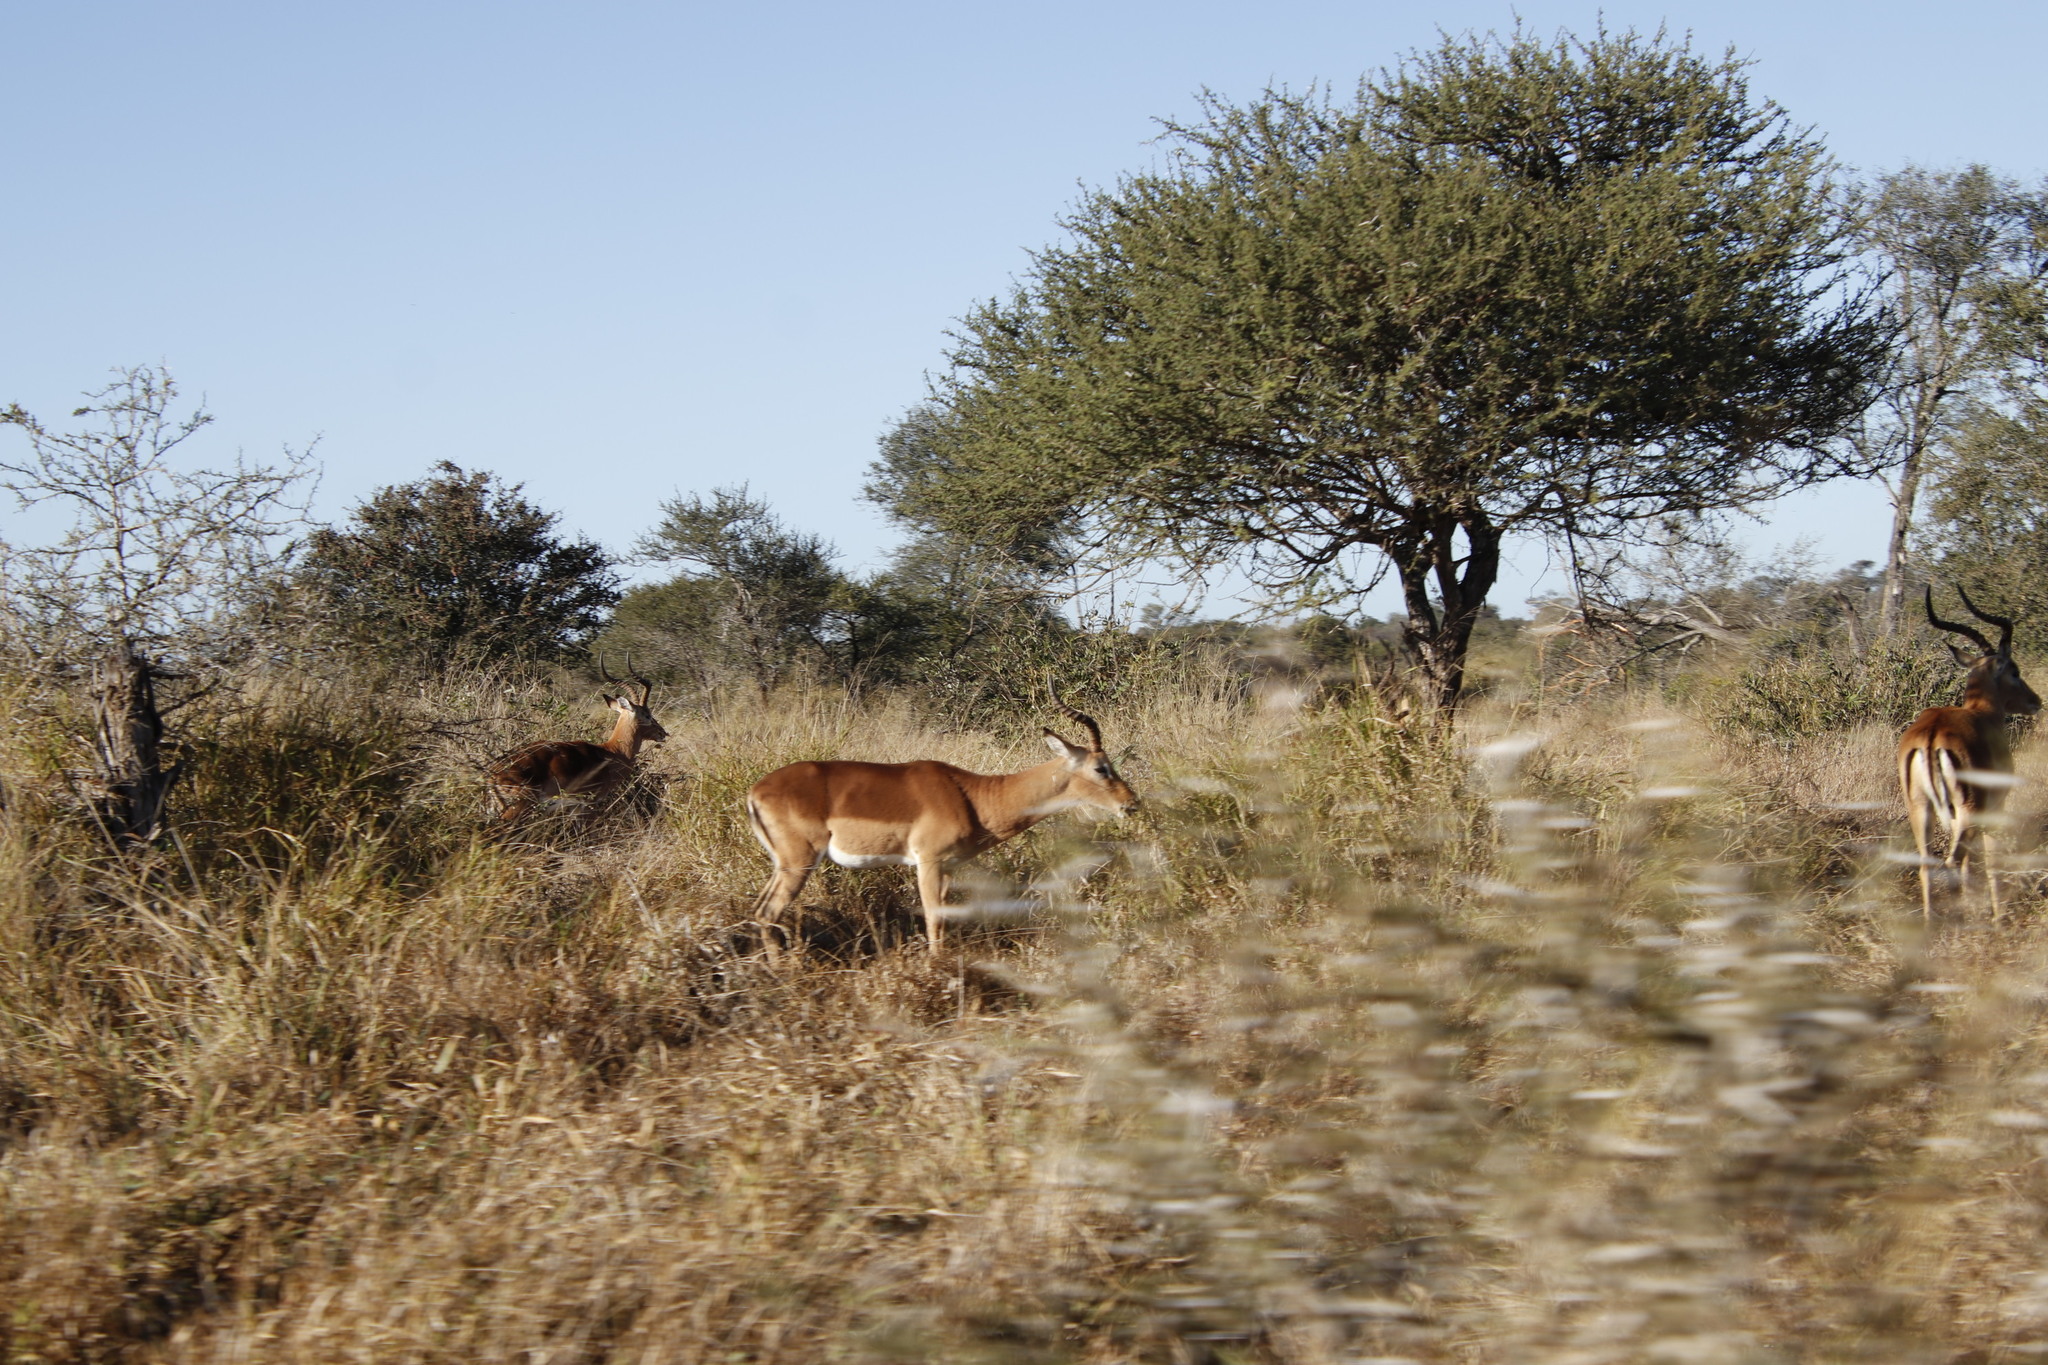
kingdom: Animalia
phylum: Chordata
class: Mammalia
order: Artiodactyla
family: Bovidae
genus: Aepyceros
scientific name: Aepyceros melampus
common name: Impala
